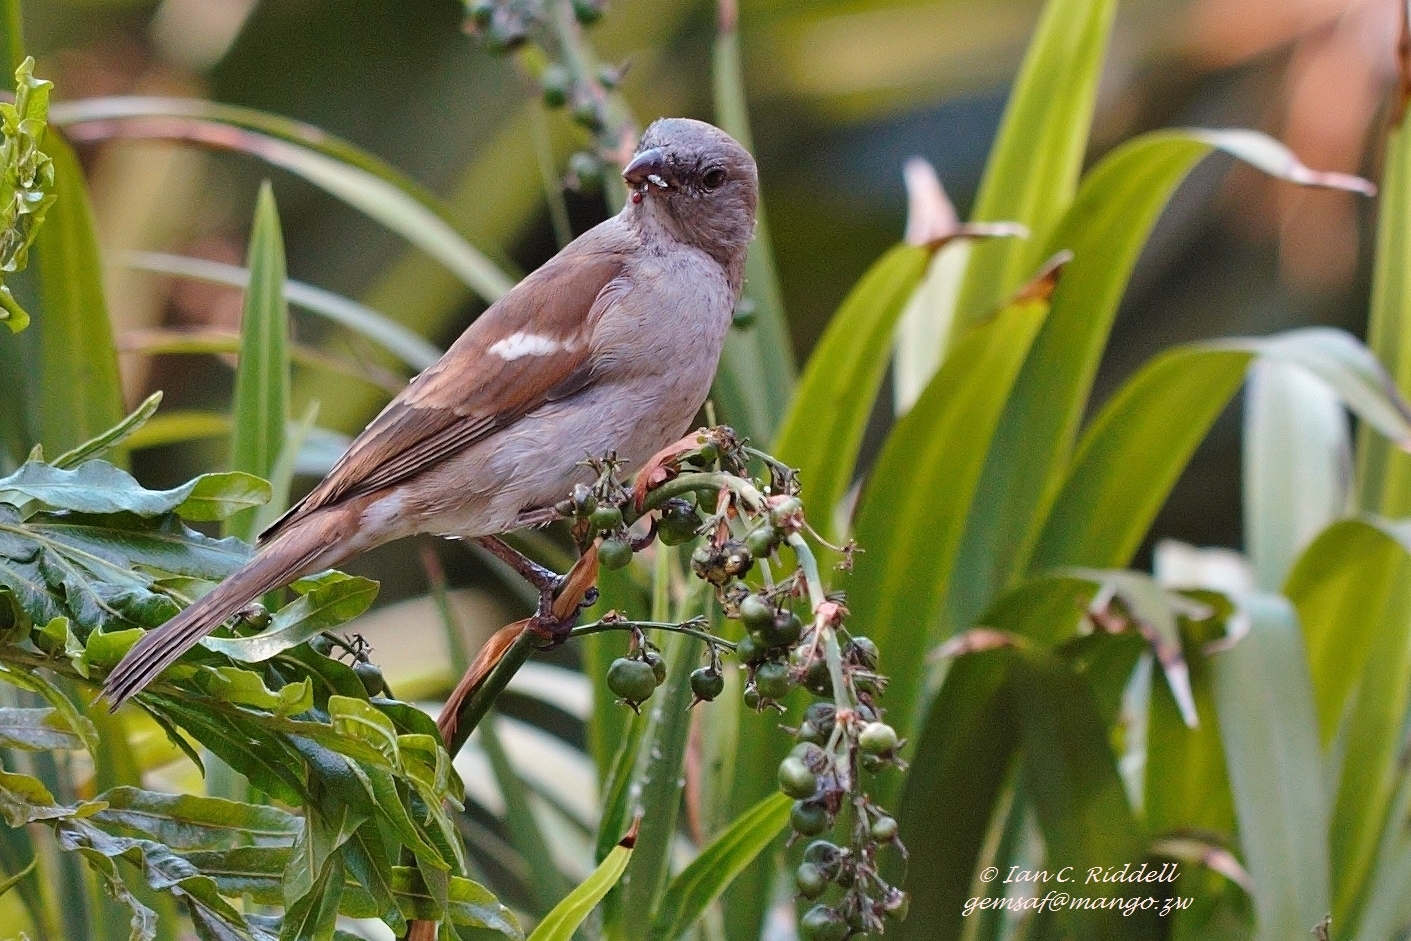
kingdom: Animalia
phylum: Chordata
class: Aves
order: Passeriformes
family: Passeridae
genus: Passer
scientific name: Passer diffusus
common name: Southern grey-headed sparrow
